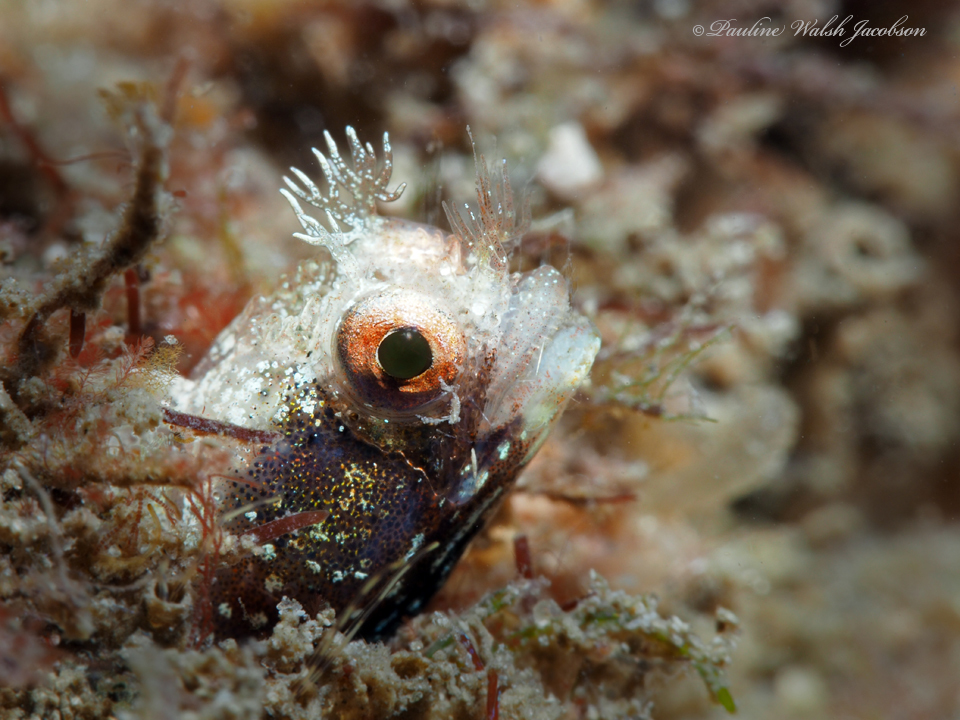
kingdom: Animalia
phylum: Chordata
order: Perciformes
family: Chaenopsidae
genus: Acanthemblemaria
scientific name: Acanthemblemaria aspera
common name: Roughhead blenny
